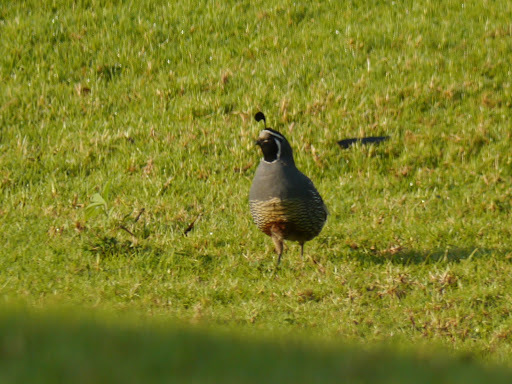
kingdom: Animalia
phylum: Chordata
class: Aves
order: Galliformes
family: Odontophoridae
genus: Callipepla
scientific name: Callipepla californica
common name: California quail
